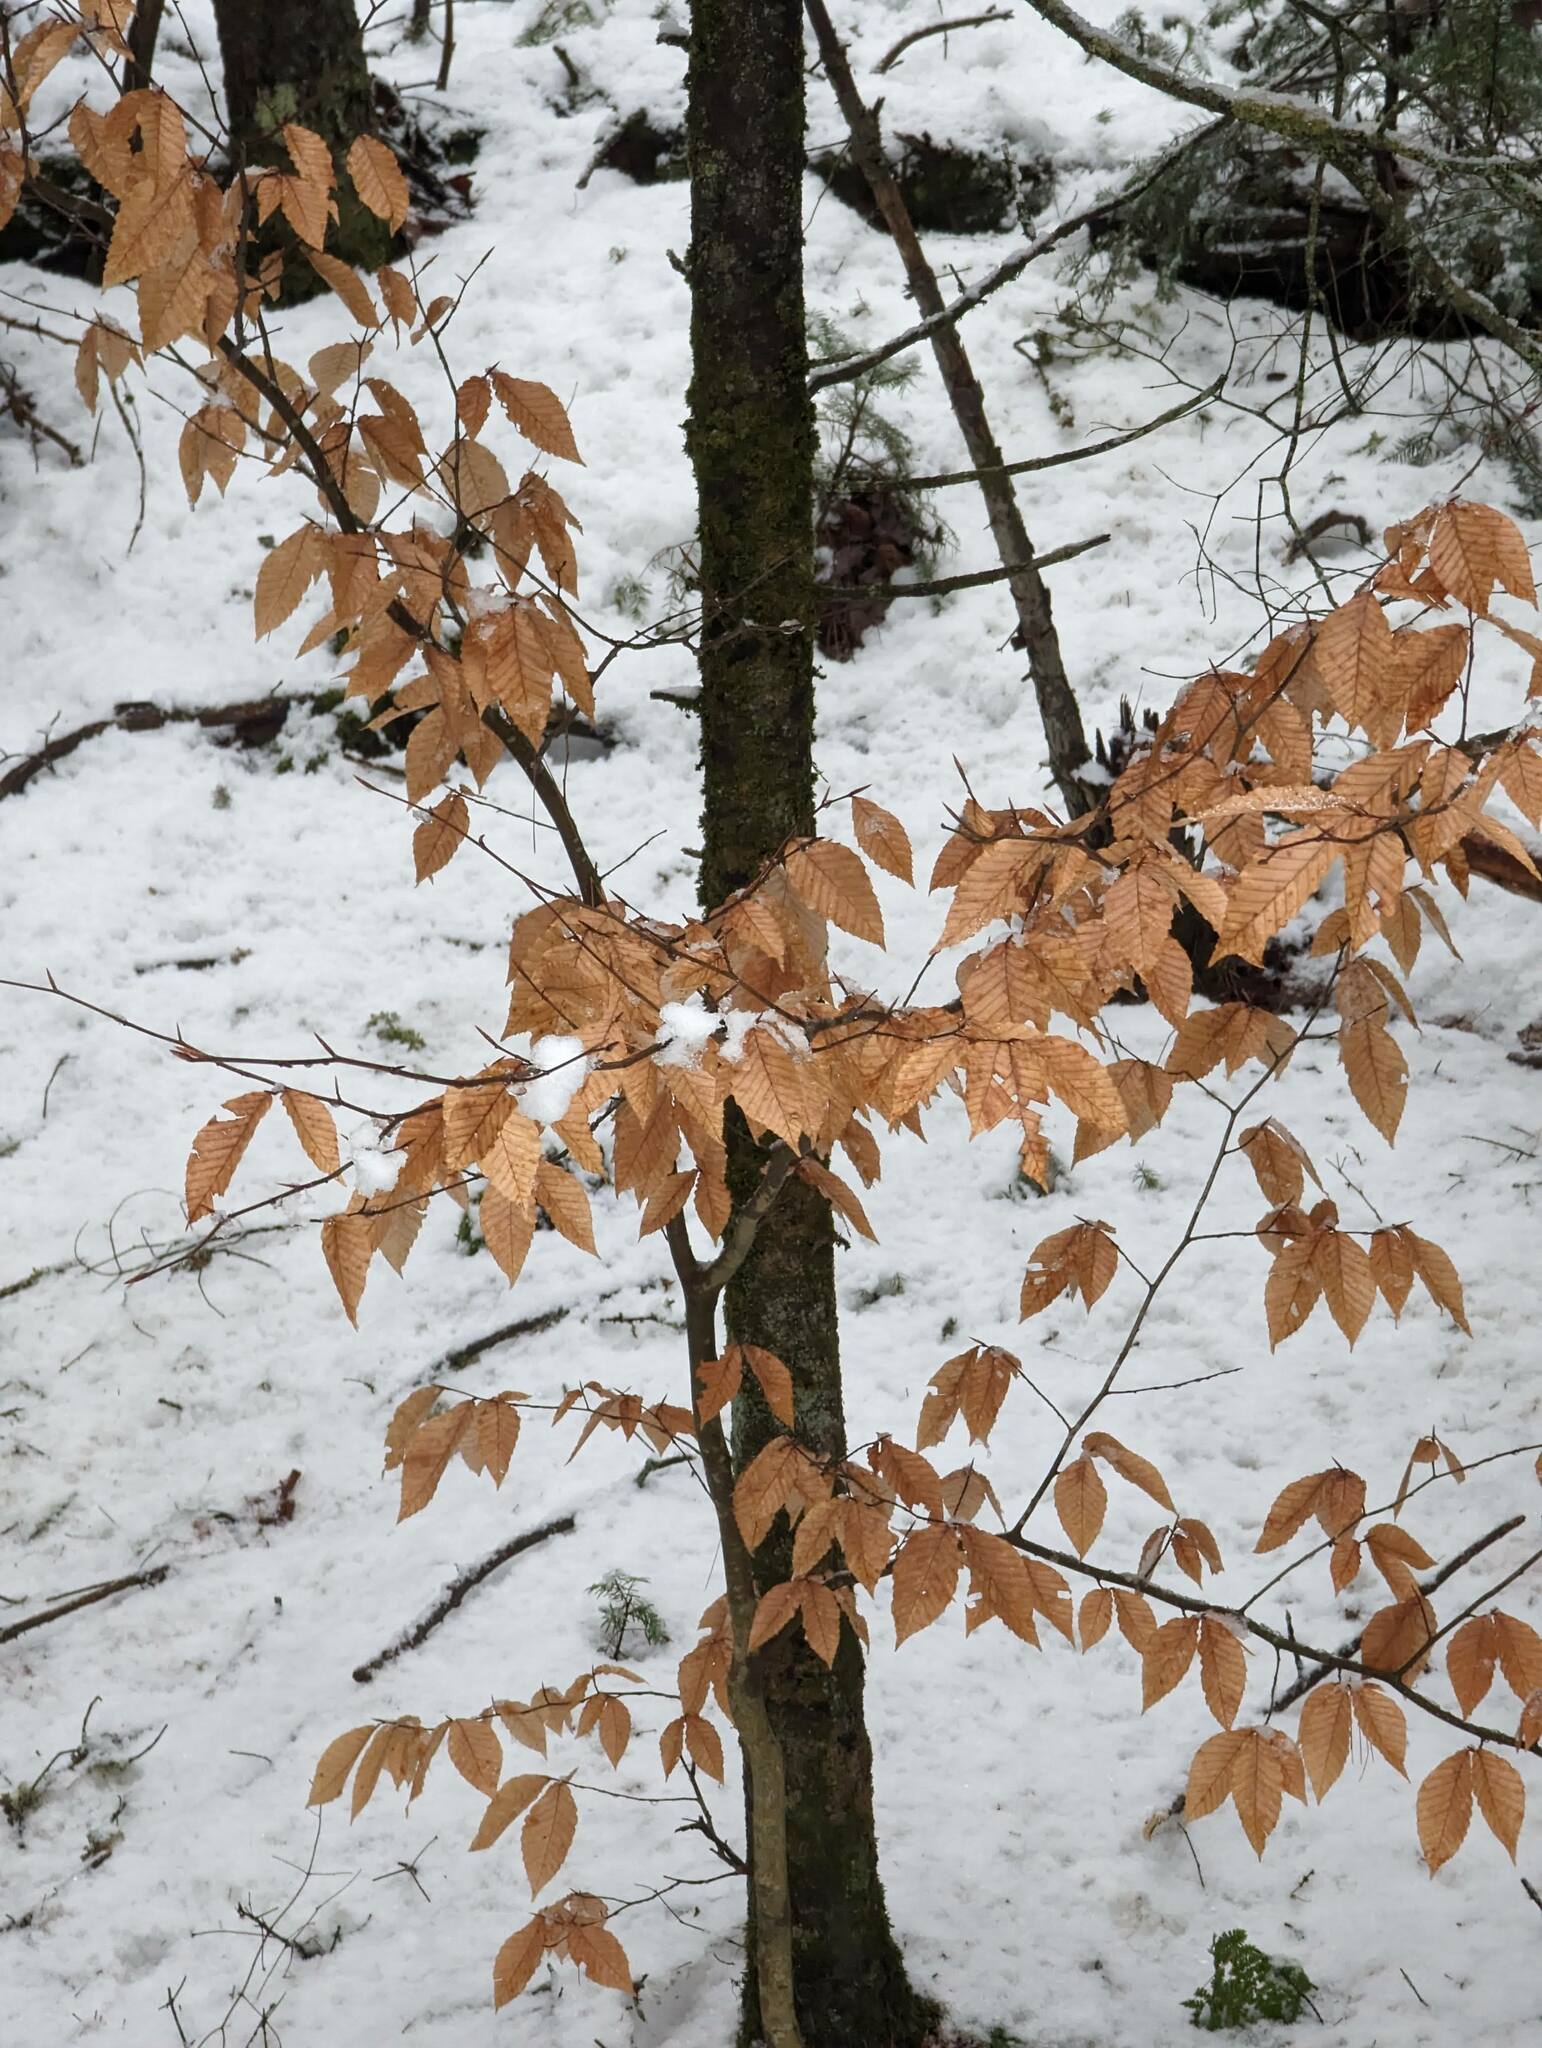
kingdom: Plantae
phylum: Tracheophyta
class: Magnoliopsida
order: Fagales
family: Fagaceae
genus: Fagus
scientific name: Fagus grandifolia
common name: American beech
